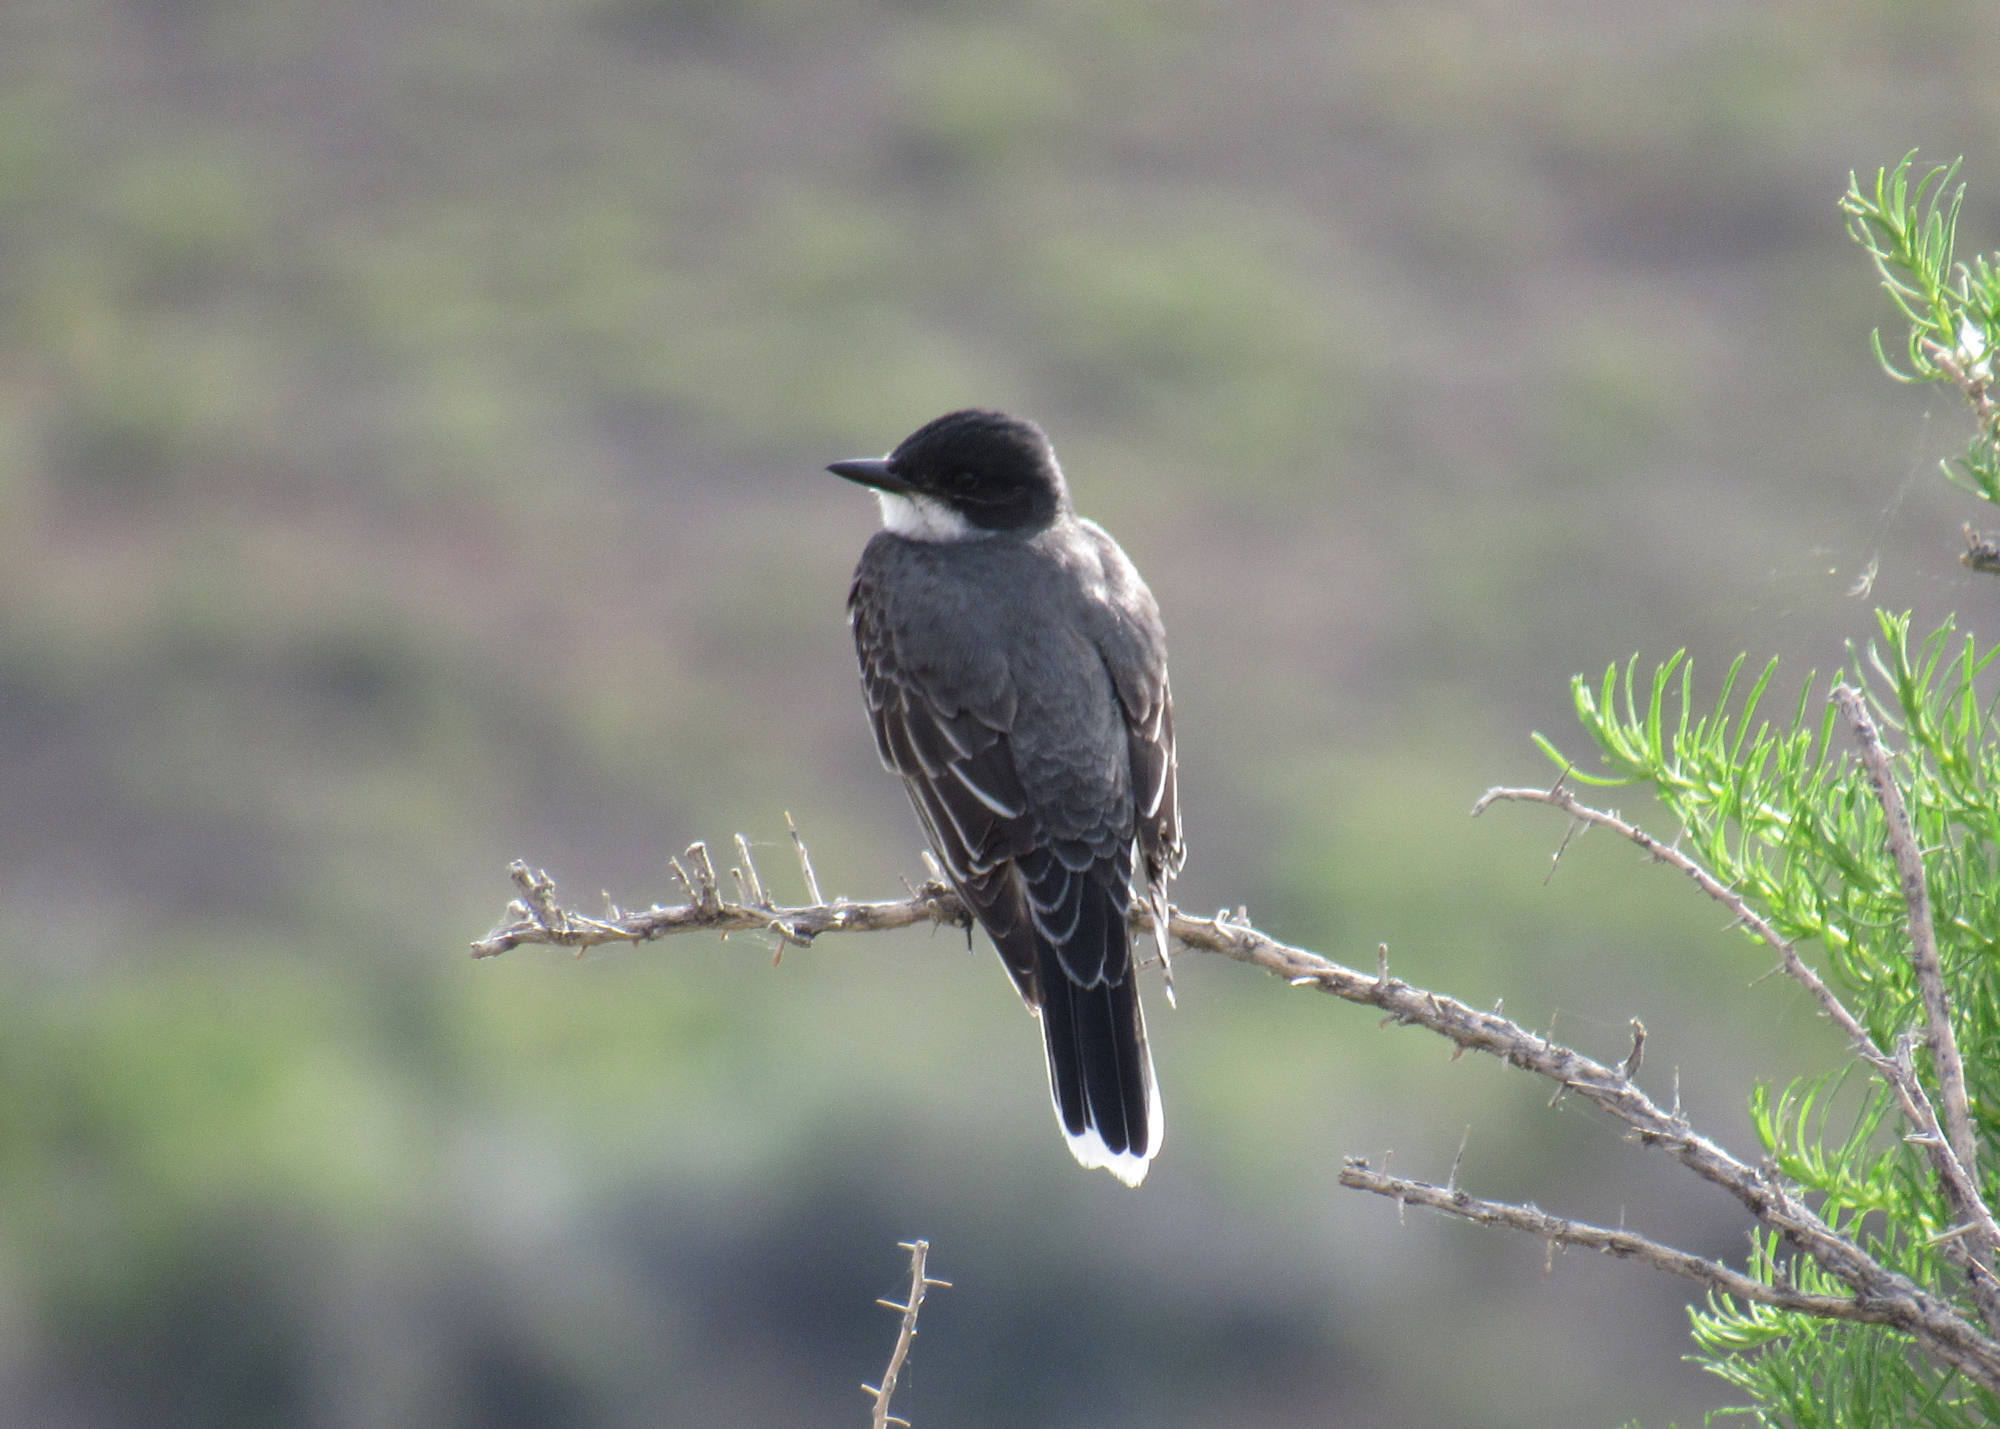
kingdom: Animalia
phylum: Chordata
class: Aves
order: Passeriformes
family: Tyrannidae
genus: Tyrannus
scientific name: Tyrannus tyrannus
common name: Eastern kingbird
